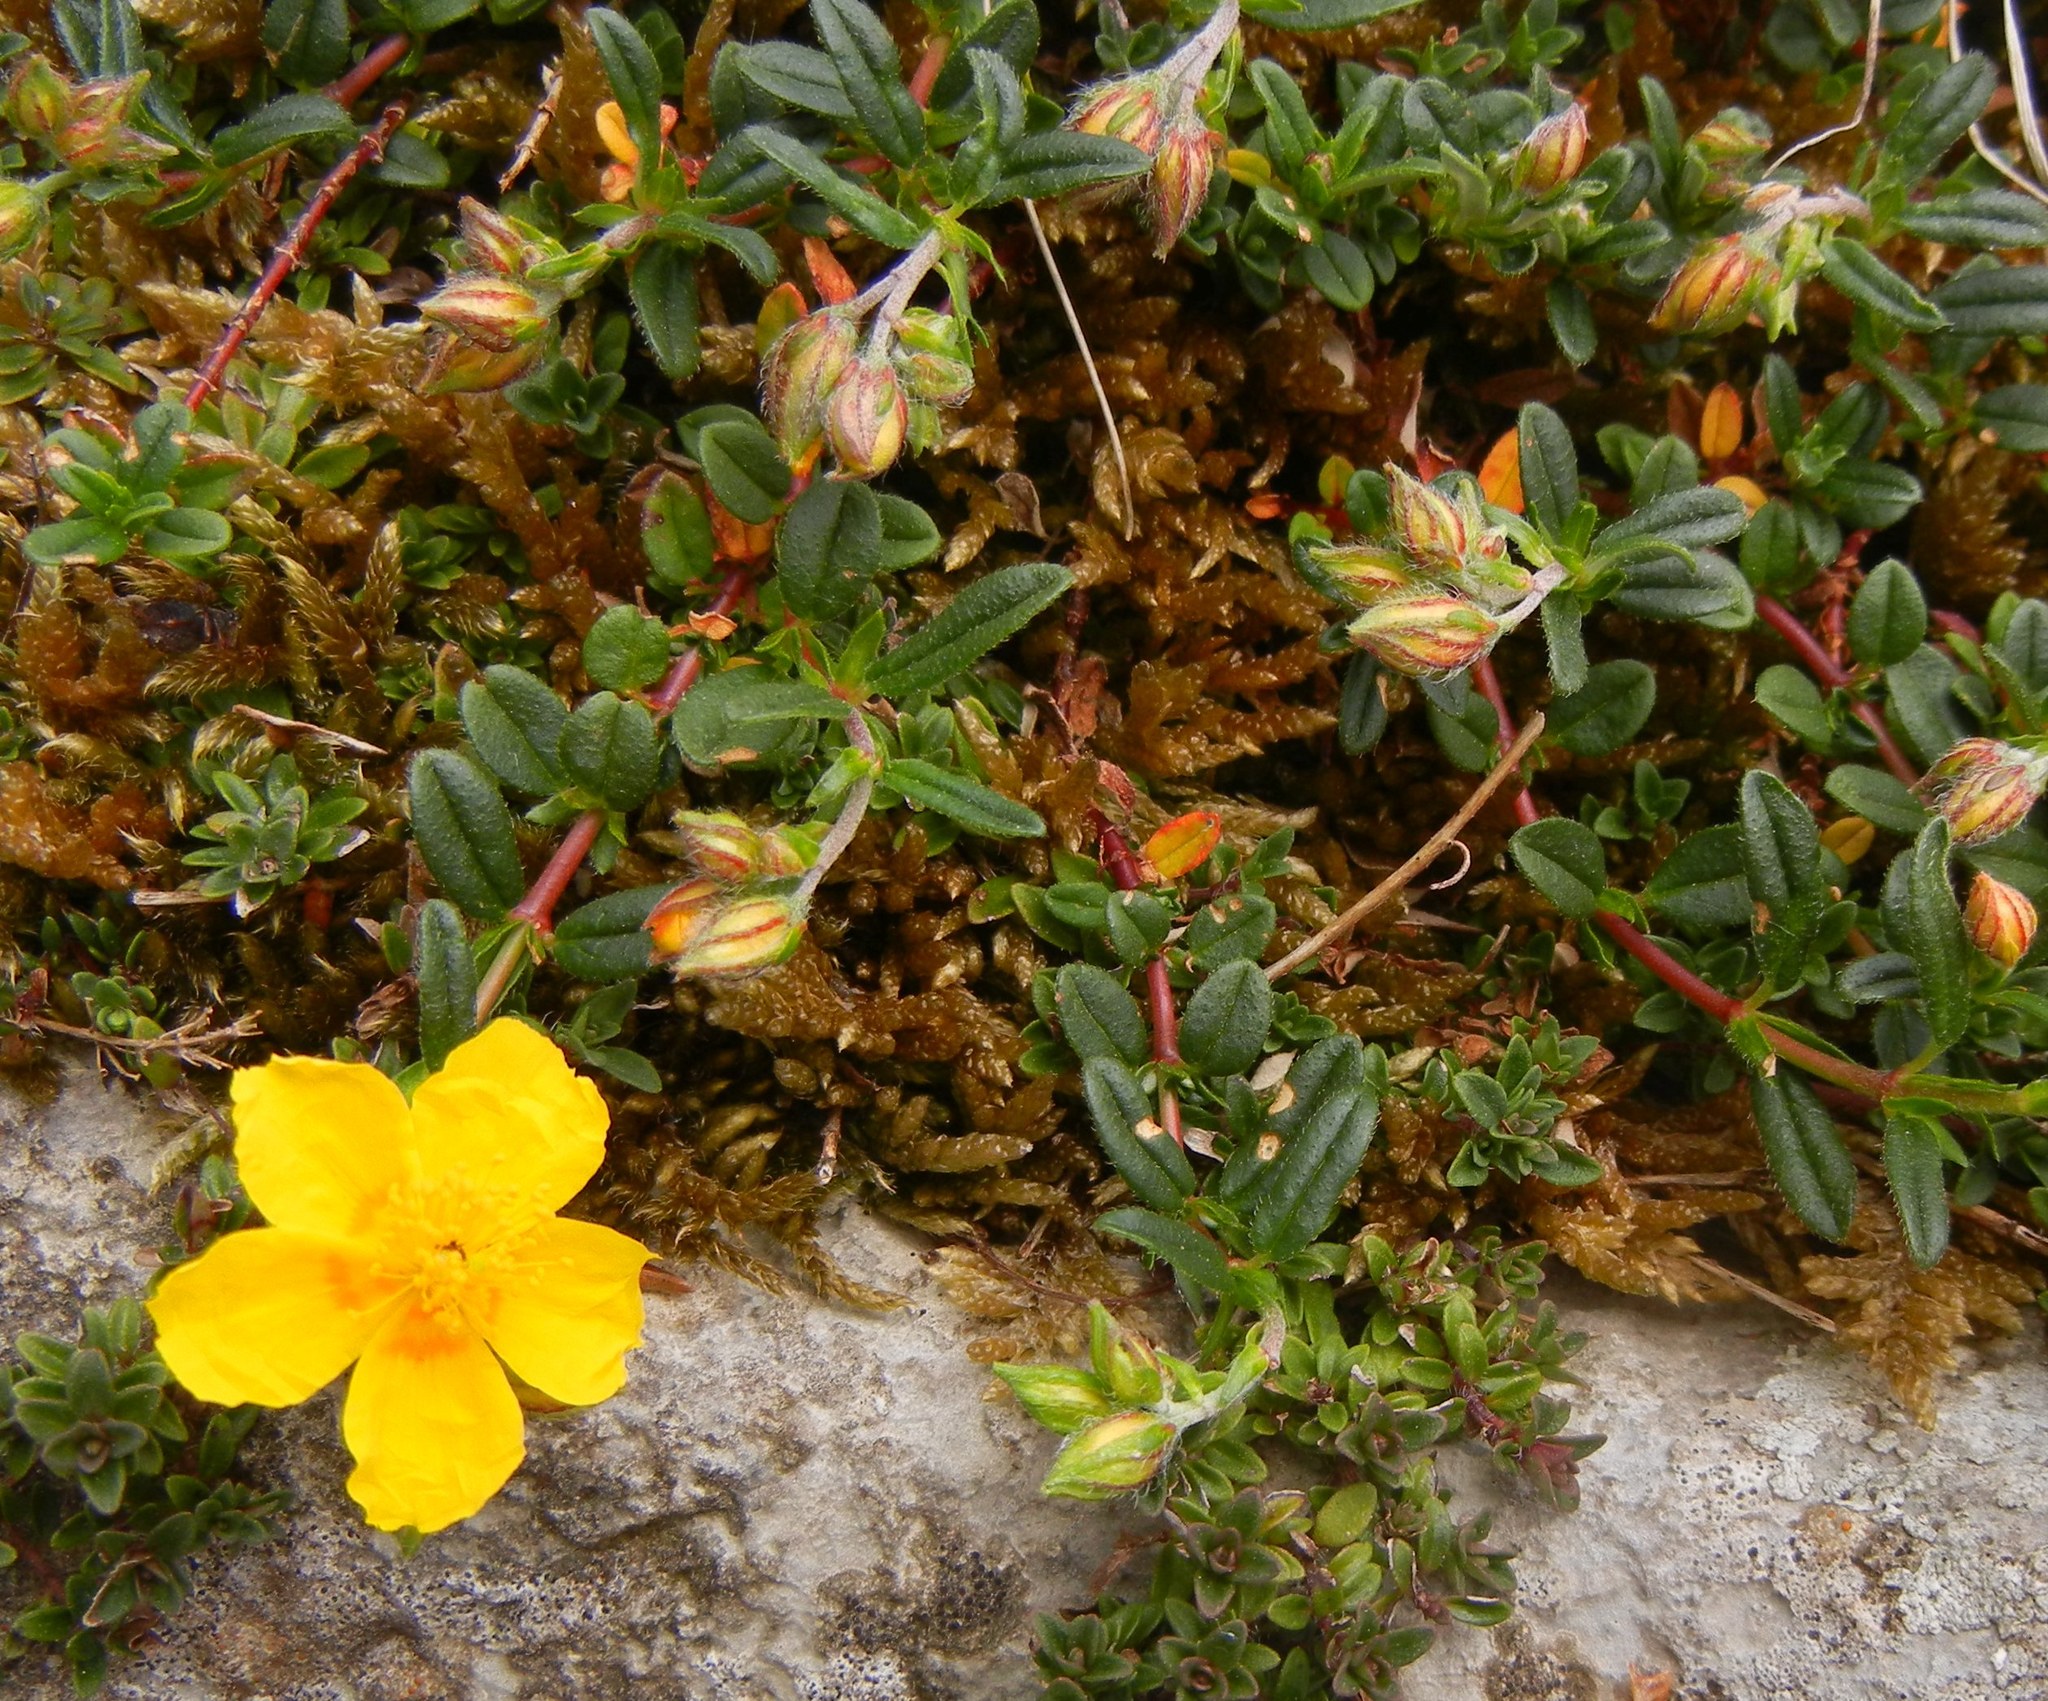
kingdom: Plantae
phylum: Tracheophyta
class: Magnoliopsida
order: Malvales
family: Cistaceae
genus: Helianthemum
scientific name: Helianthemum nummularium
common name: Common rock-rose
